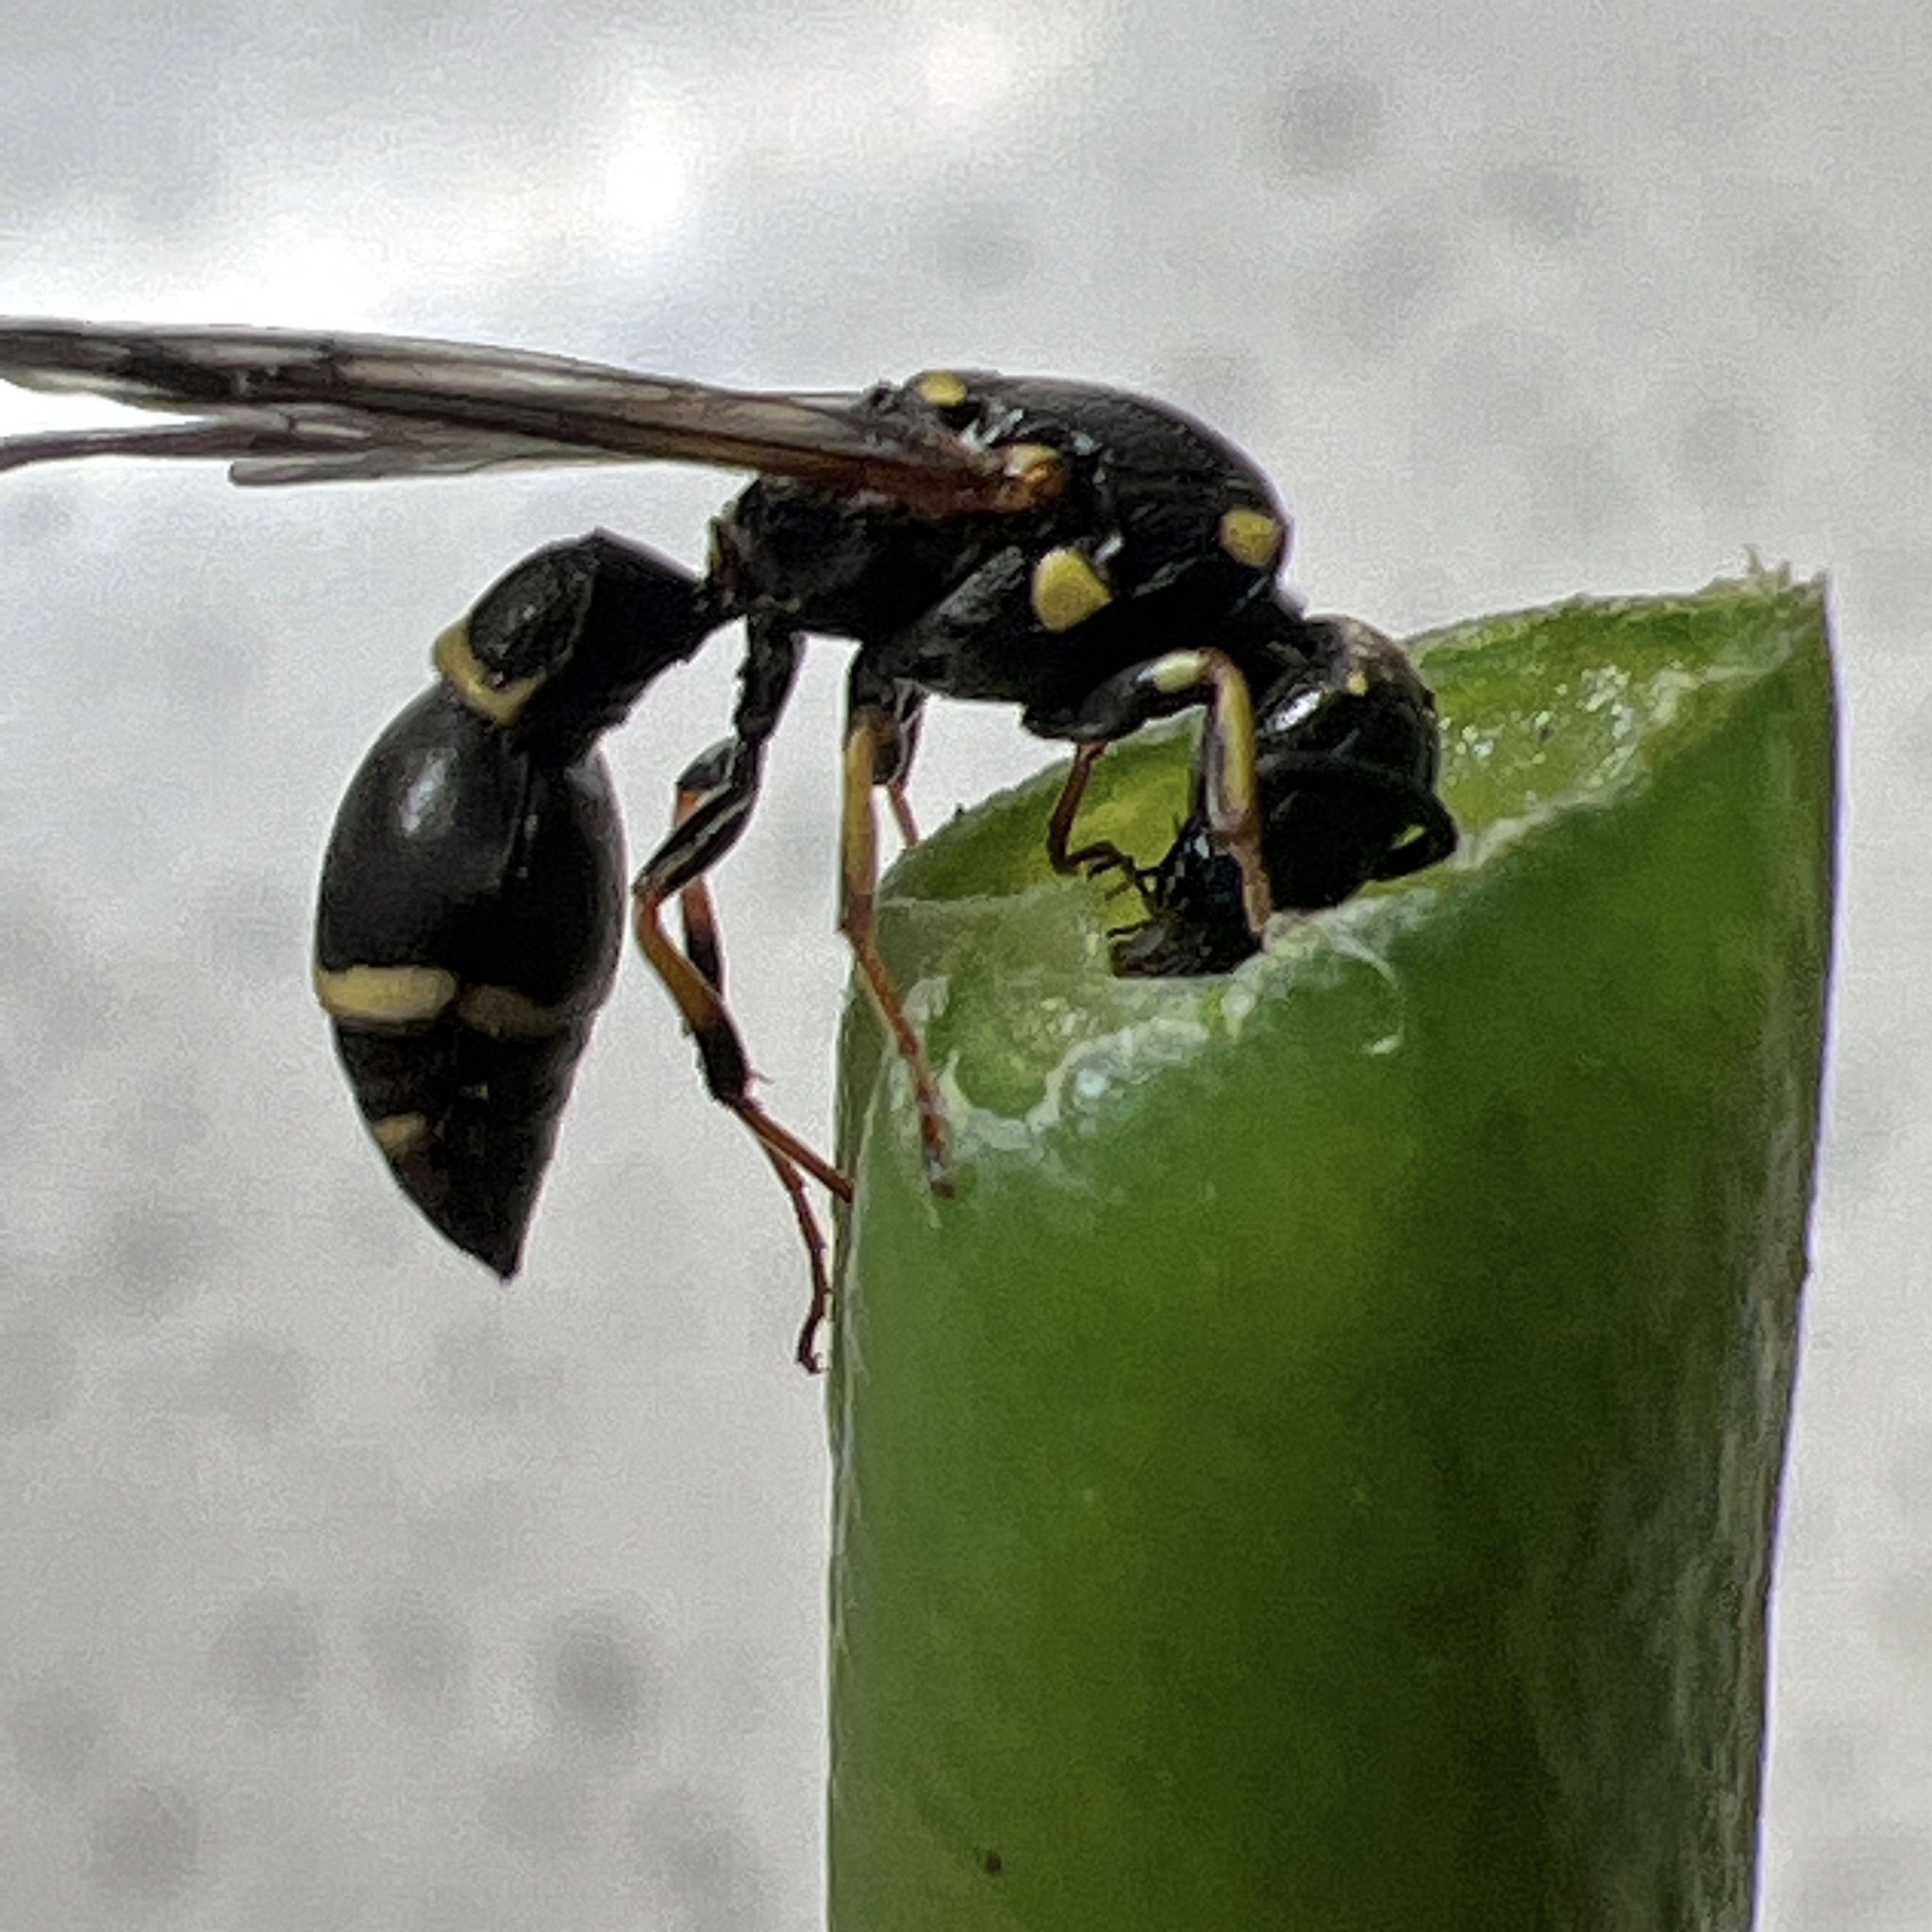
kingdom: Animalia
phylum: Arthropoda
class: Insecta
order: Hymenoptera
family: Eumenidae
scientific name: Eumenidae
